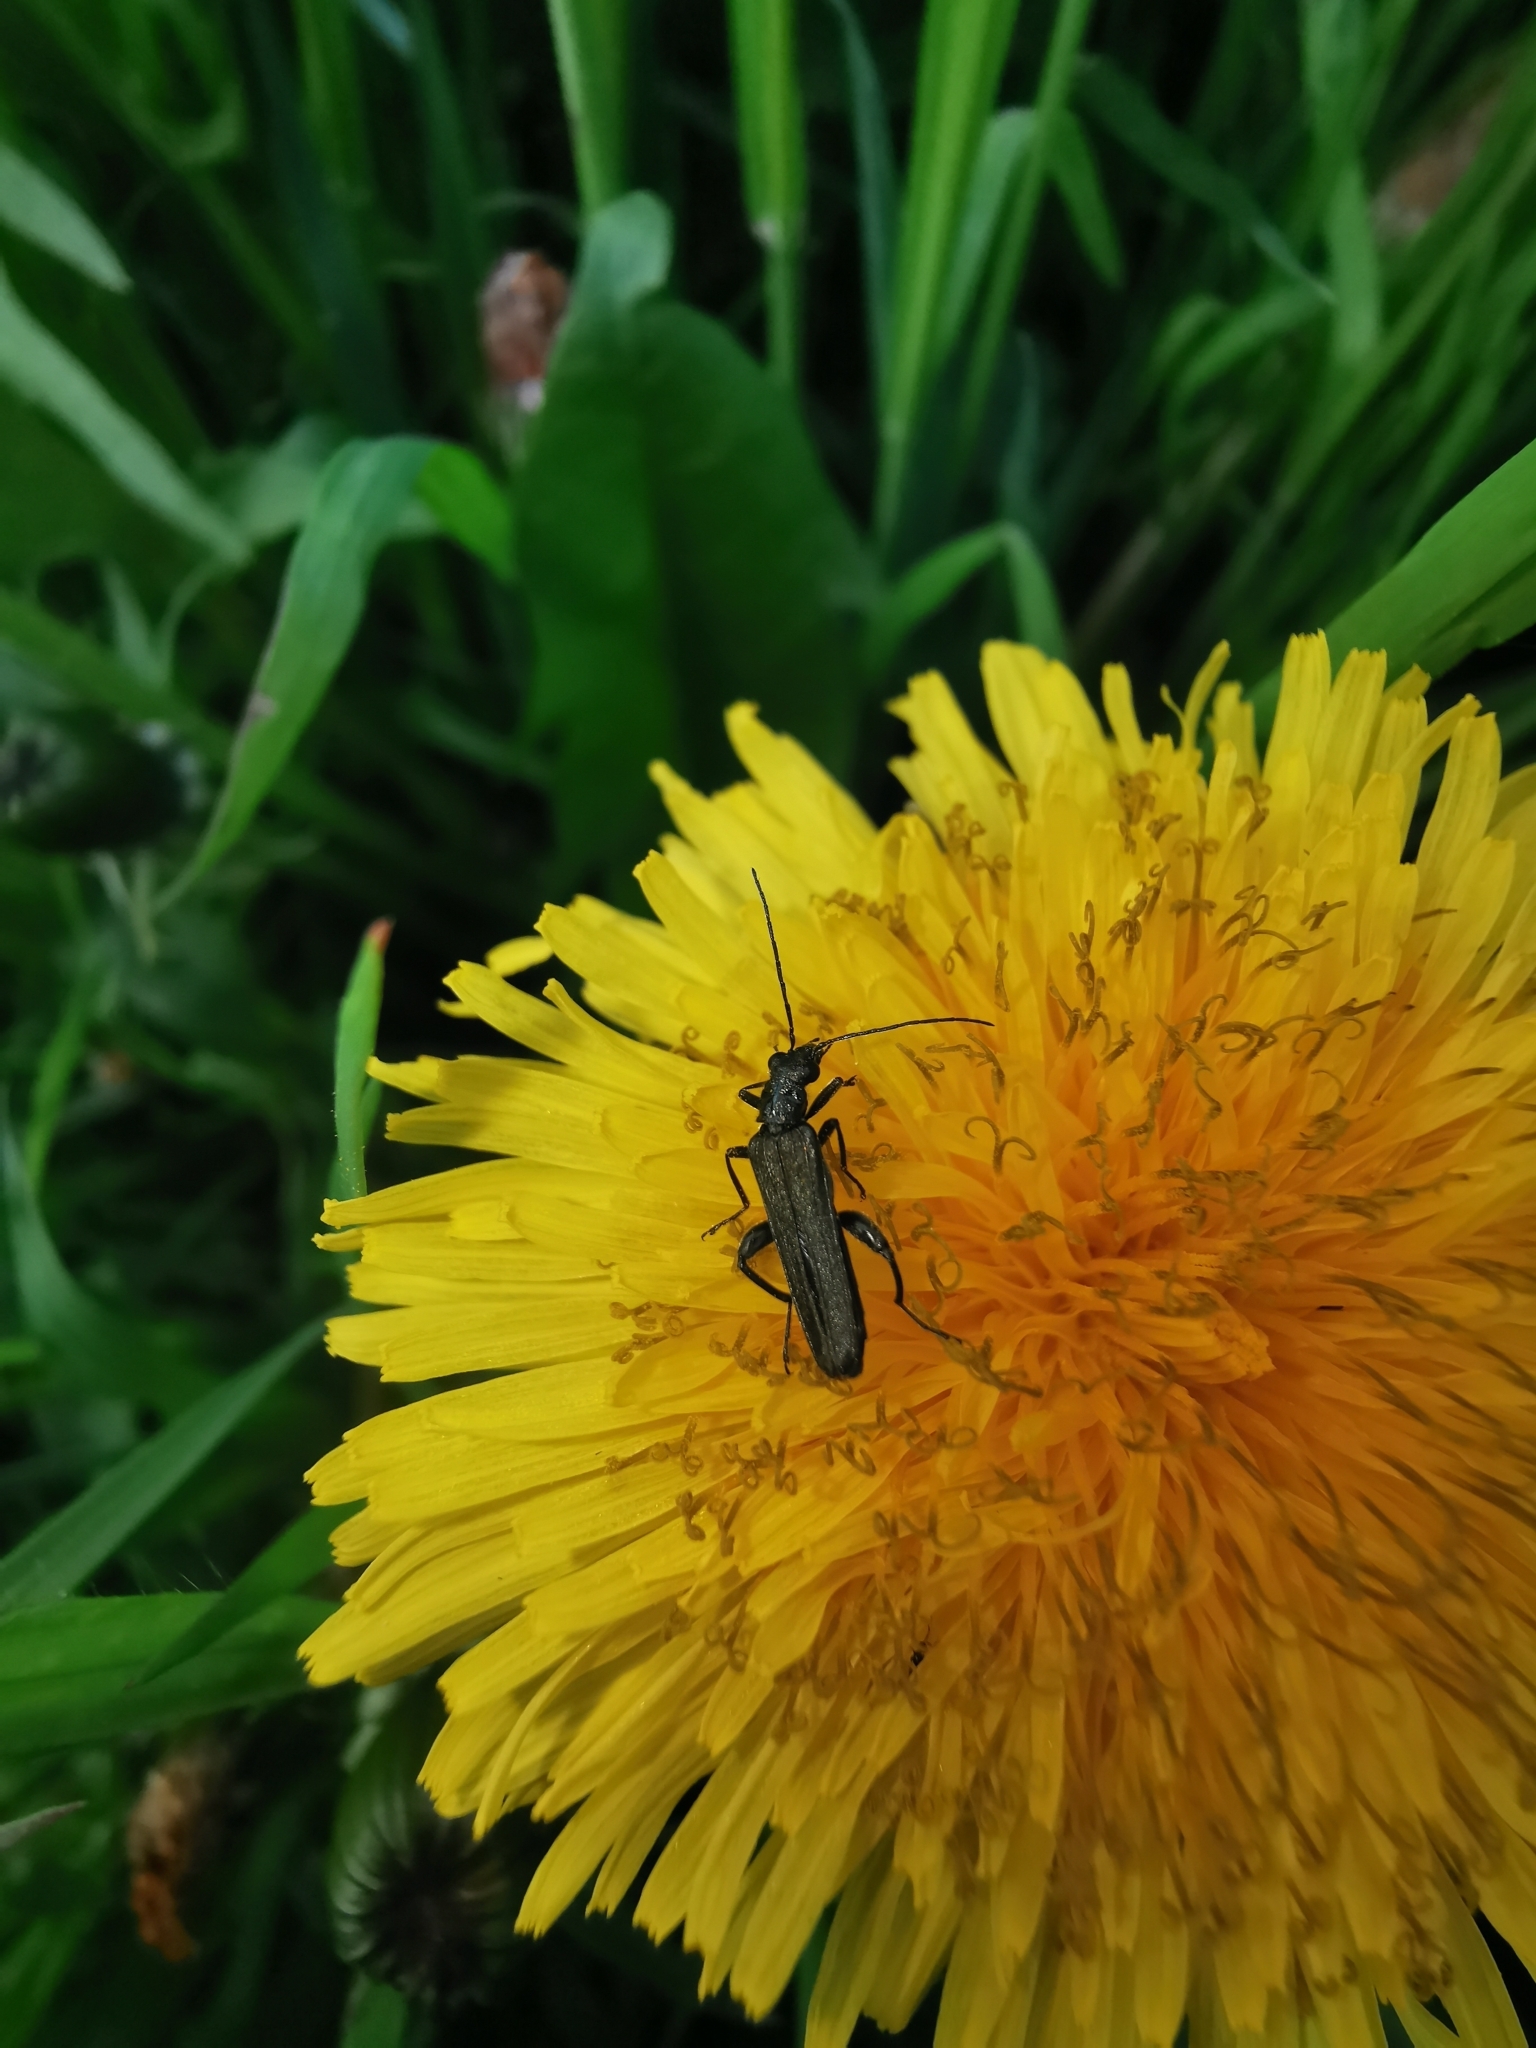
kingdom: Animalia
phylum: Arthropoda
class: Insecta
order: Coleoptera
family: Oedemeridae
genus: Oedemera
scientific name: Oedemera virescens
